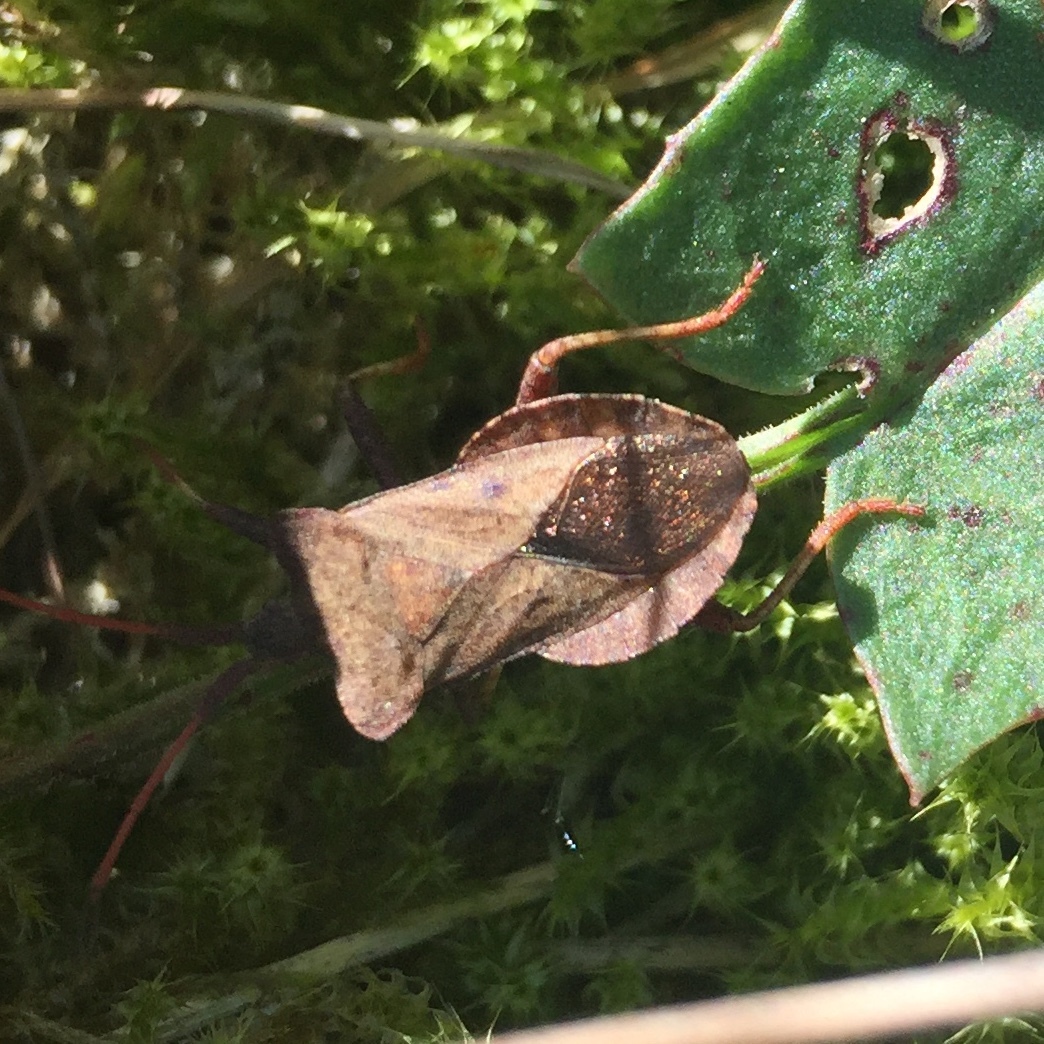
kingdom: Animalia
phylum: Arthropoda
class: Insecta
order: Hemiptera
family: Coreidae
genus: Coreus
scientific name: Coreus marginatus
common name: Dock bug
